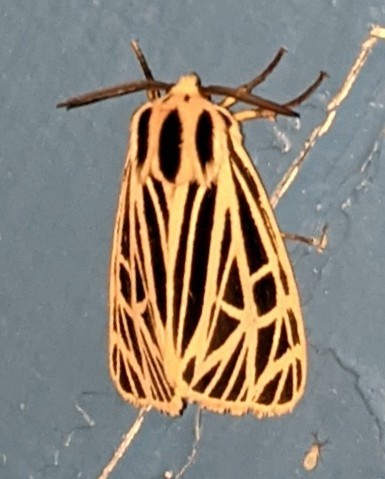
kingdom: Animalia
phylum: Arthropoda
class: Insecta
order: Lepidoptera
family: Erebidae
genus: Grammia
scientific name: Grammia virgo
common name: Virgin tiger moth
